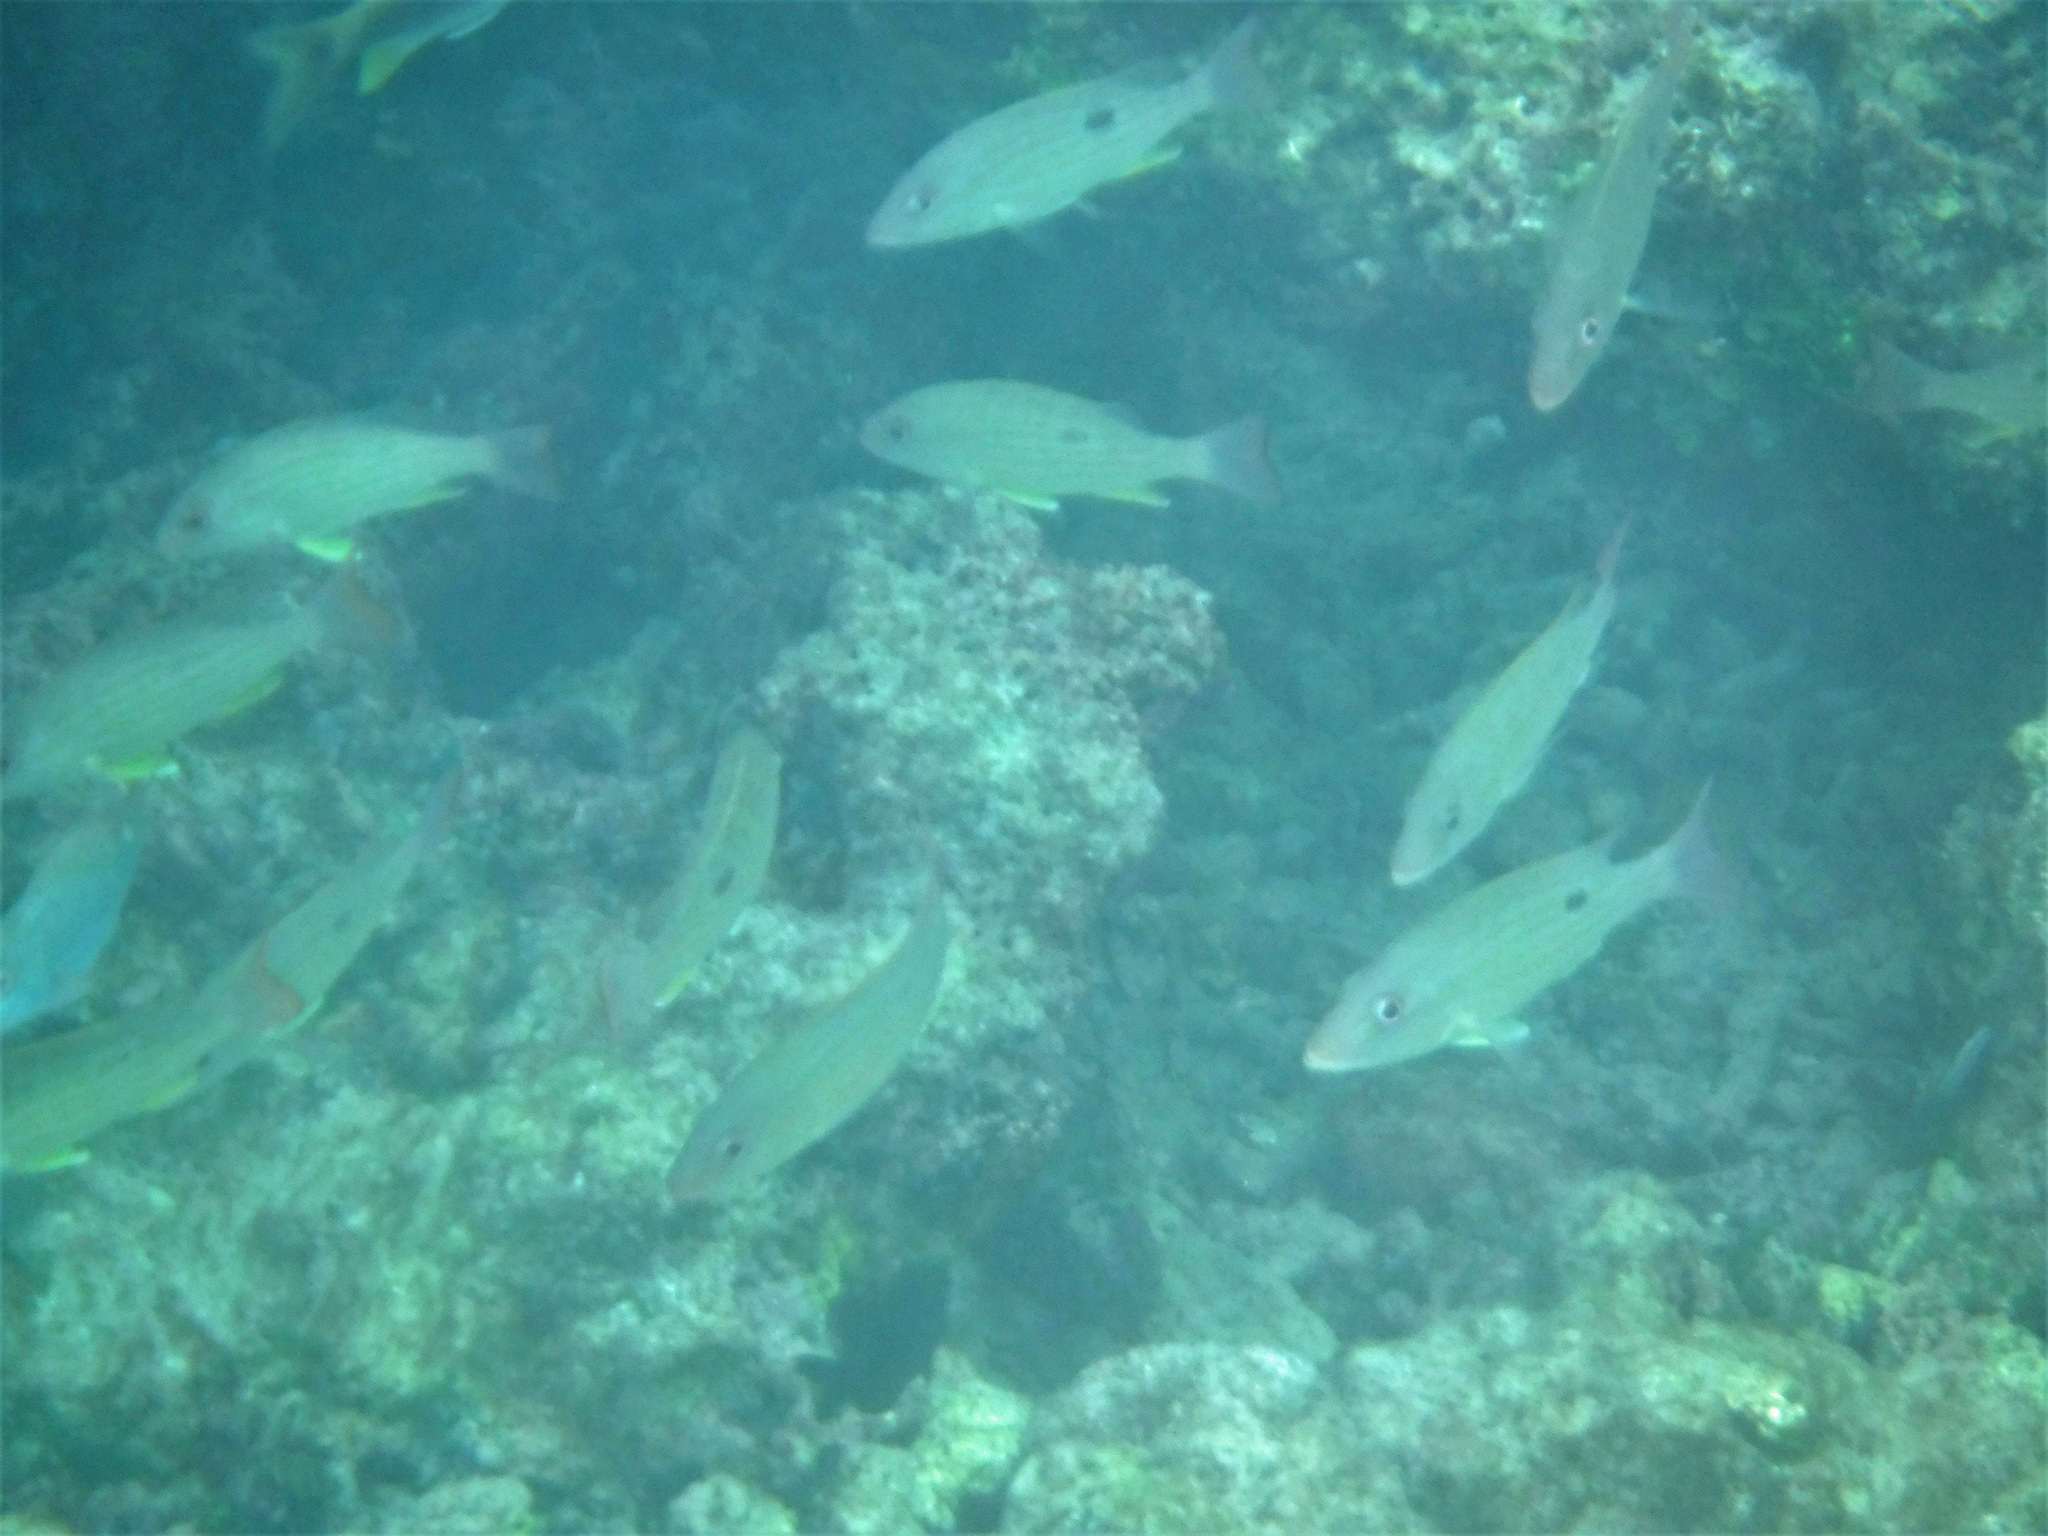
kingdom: Animalia
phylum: Chordata
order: Perciformes
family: Lutjanidae
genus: Lutjanus
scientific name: Lutjanus synagris
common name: Lane snapper
